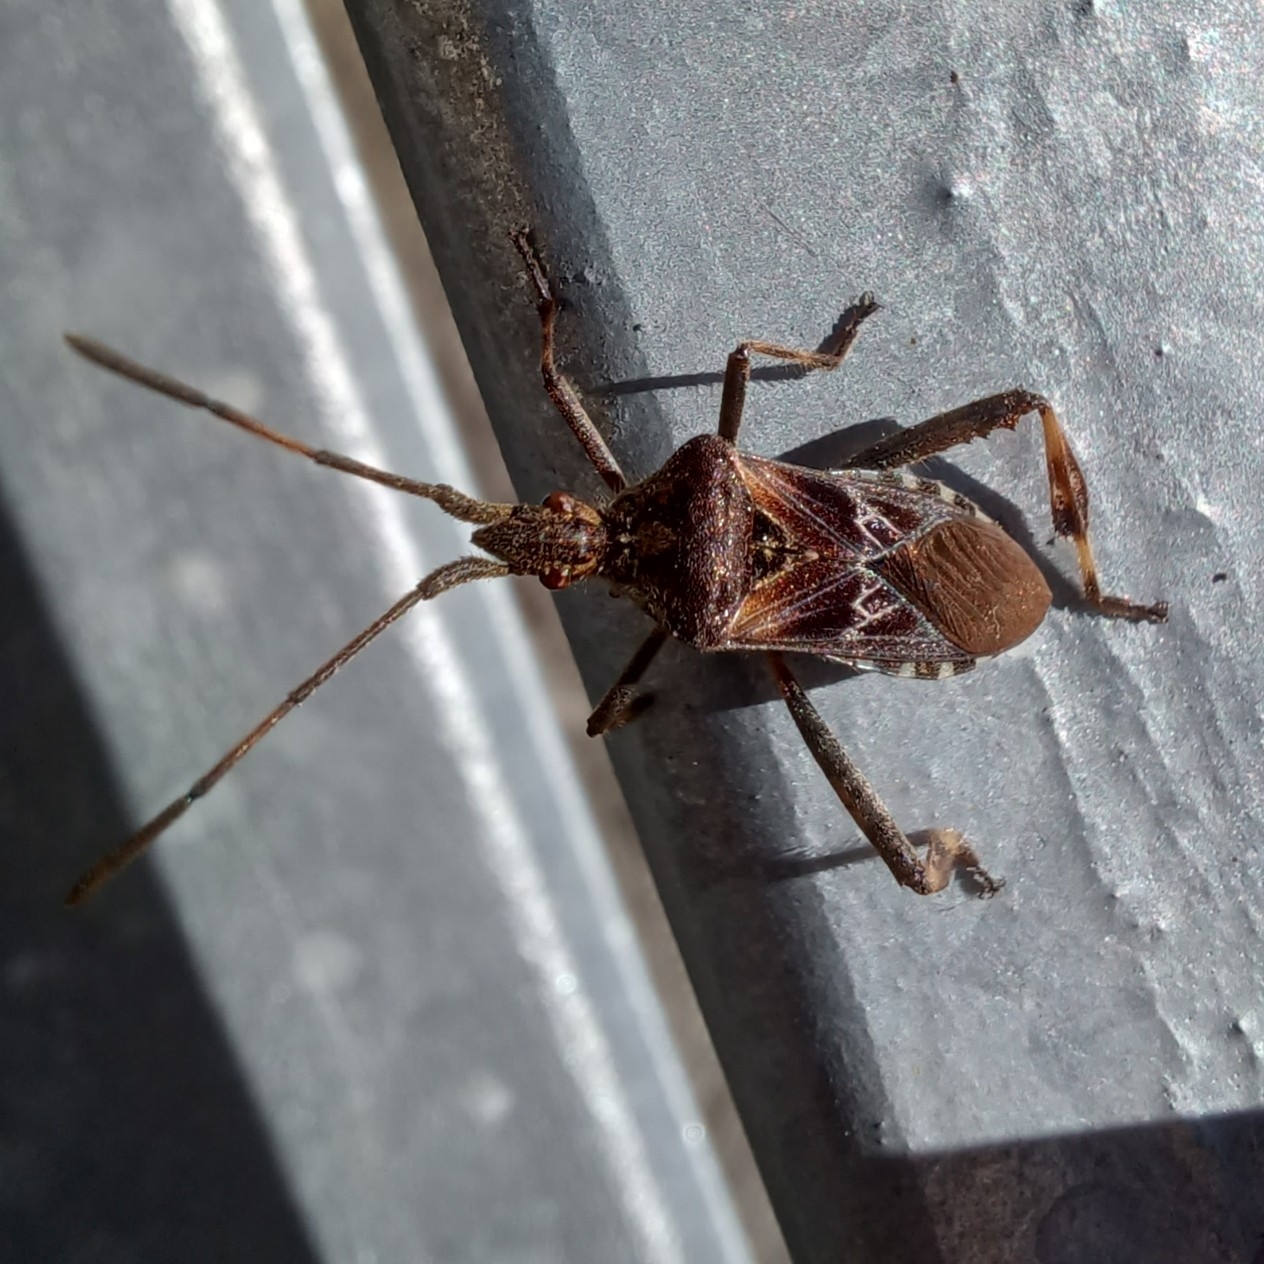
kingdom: Animalia
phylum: Arthropoda
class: Insecta
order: Hemiptera
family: Coreidae
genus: Leptoglossus
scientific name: Leptoglossus occidentalis
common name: Western conifer-seed bug
